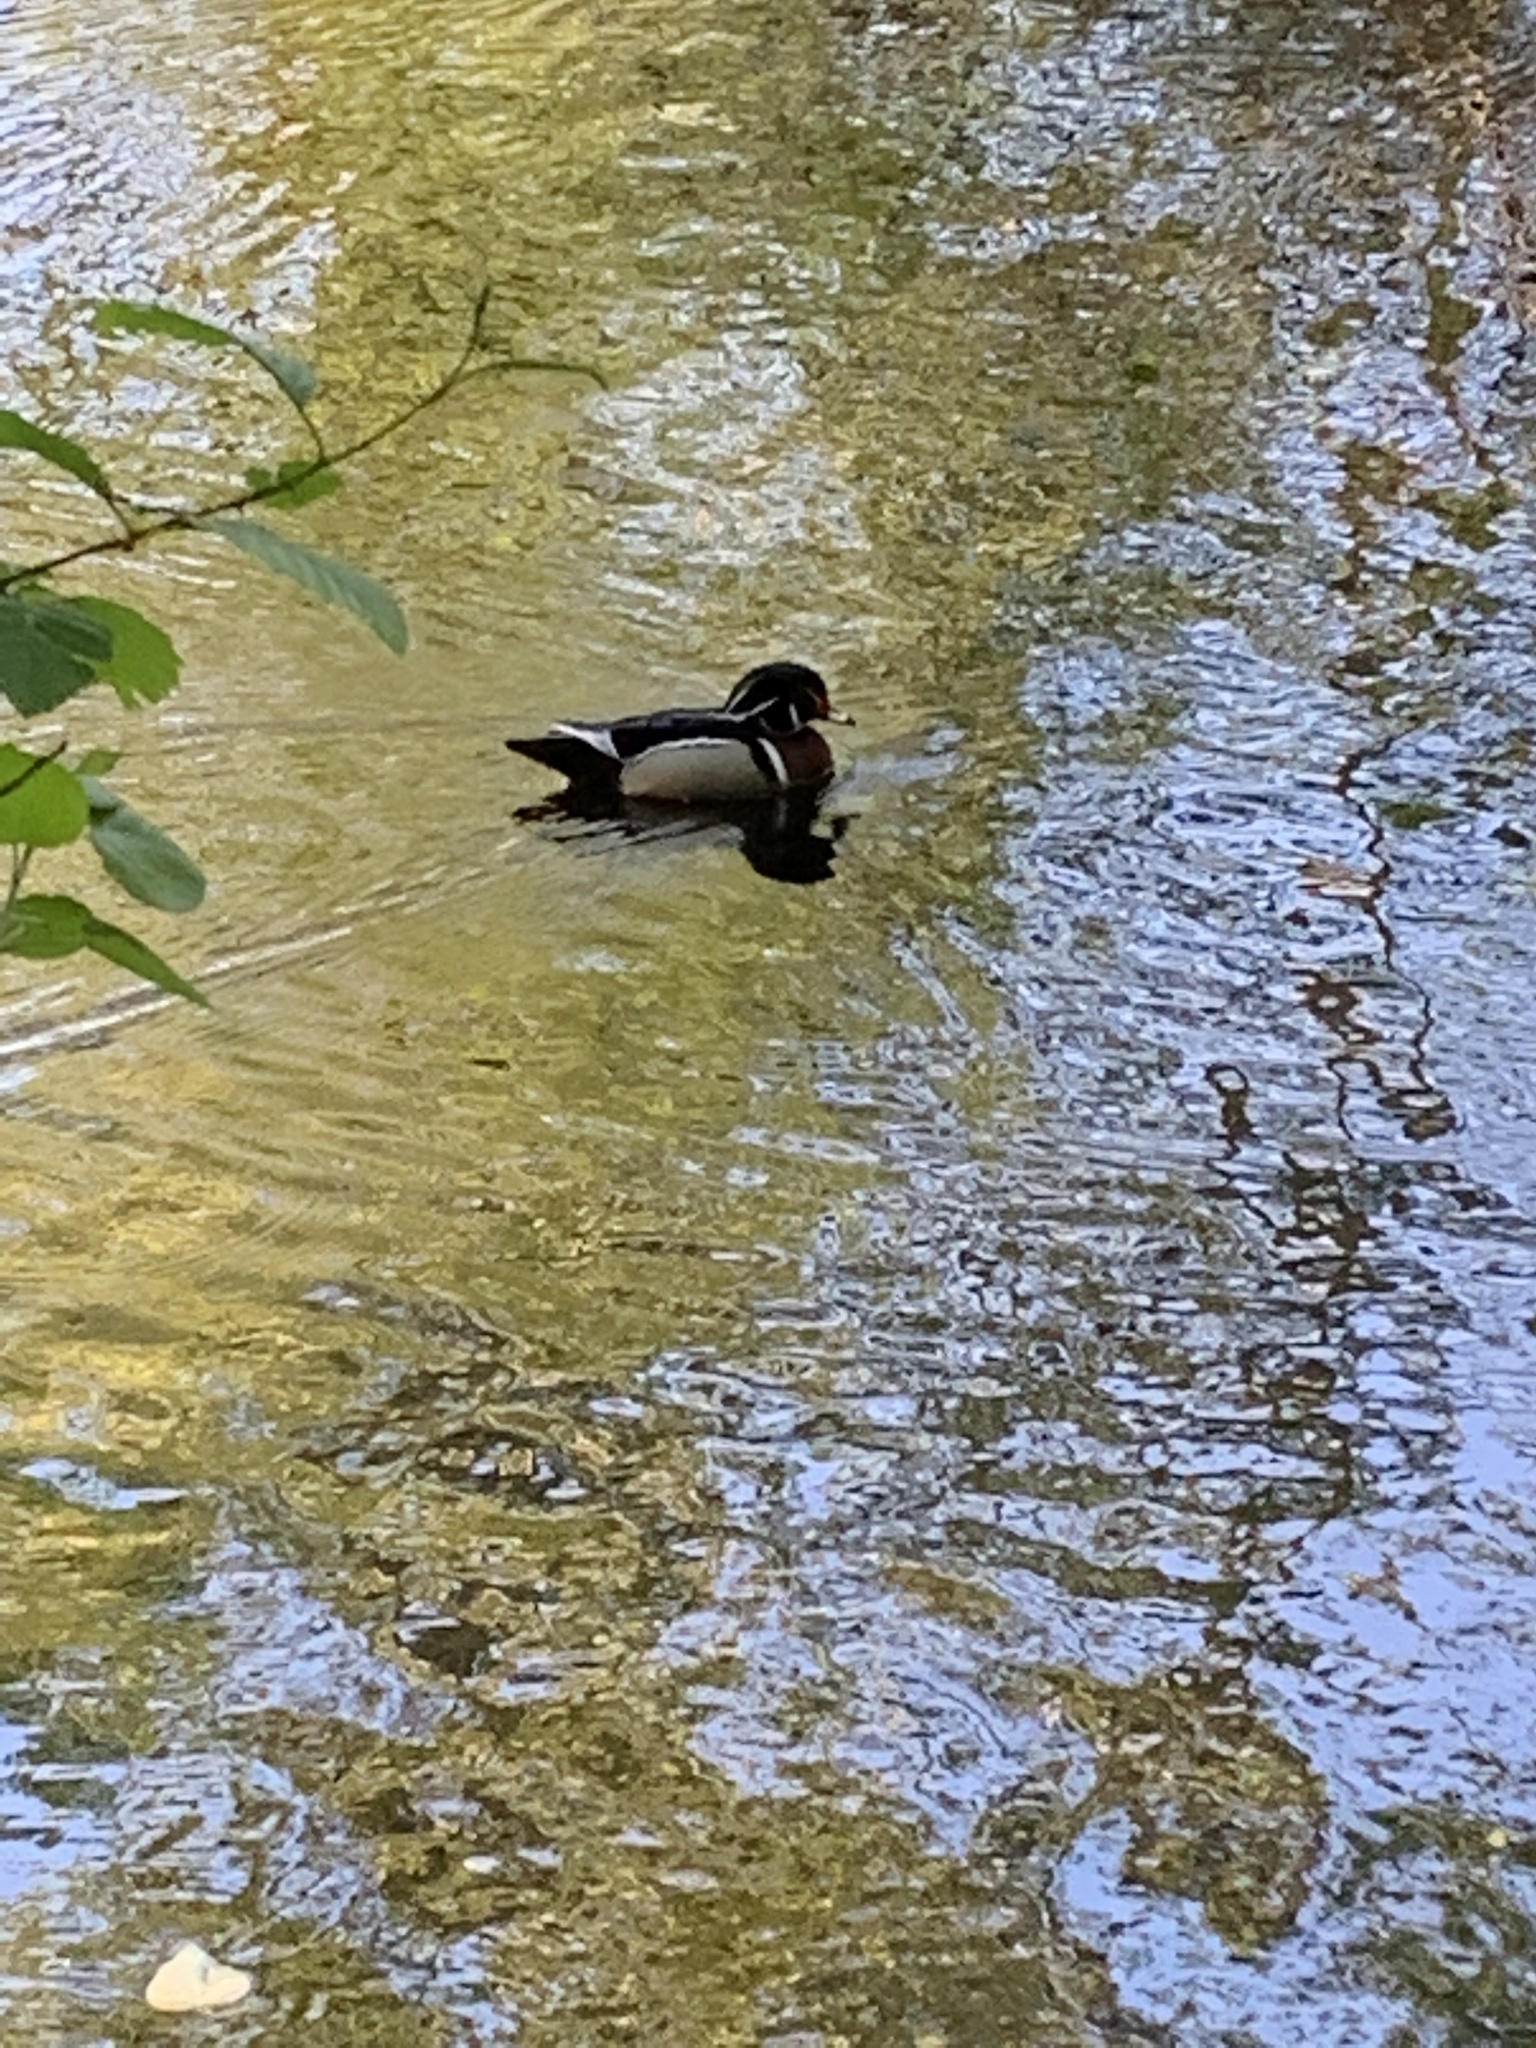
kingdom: Animalia
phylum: Chordata
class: Aves
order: Anseriformes
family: Anatidae
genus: Aix
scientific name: Aix sponsa
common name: Wood duck
